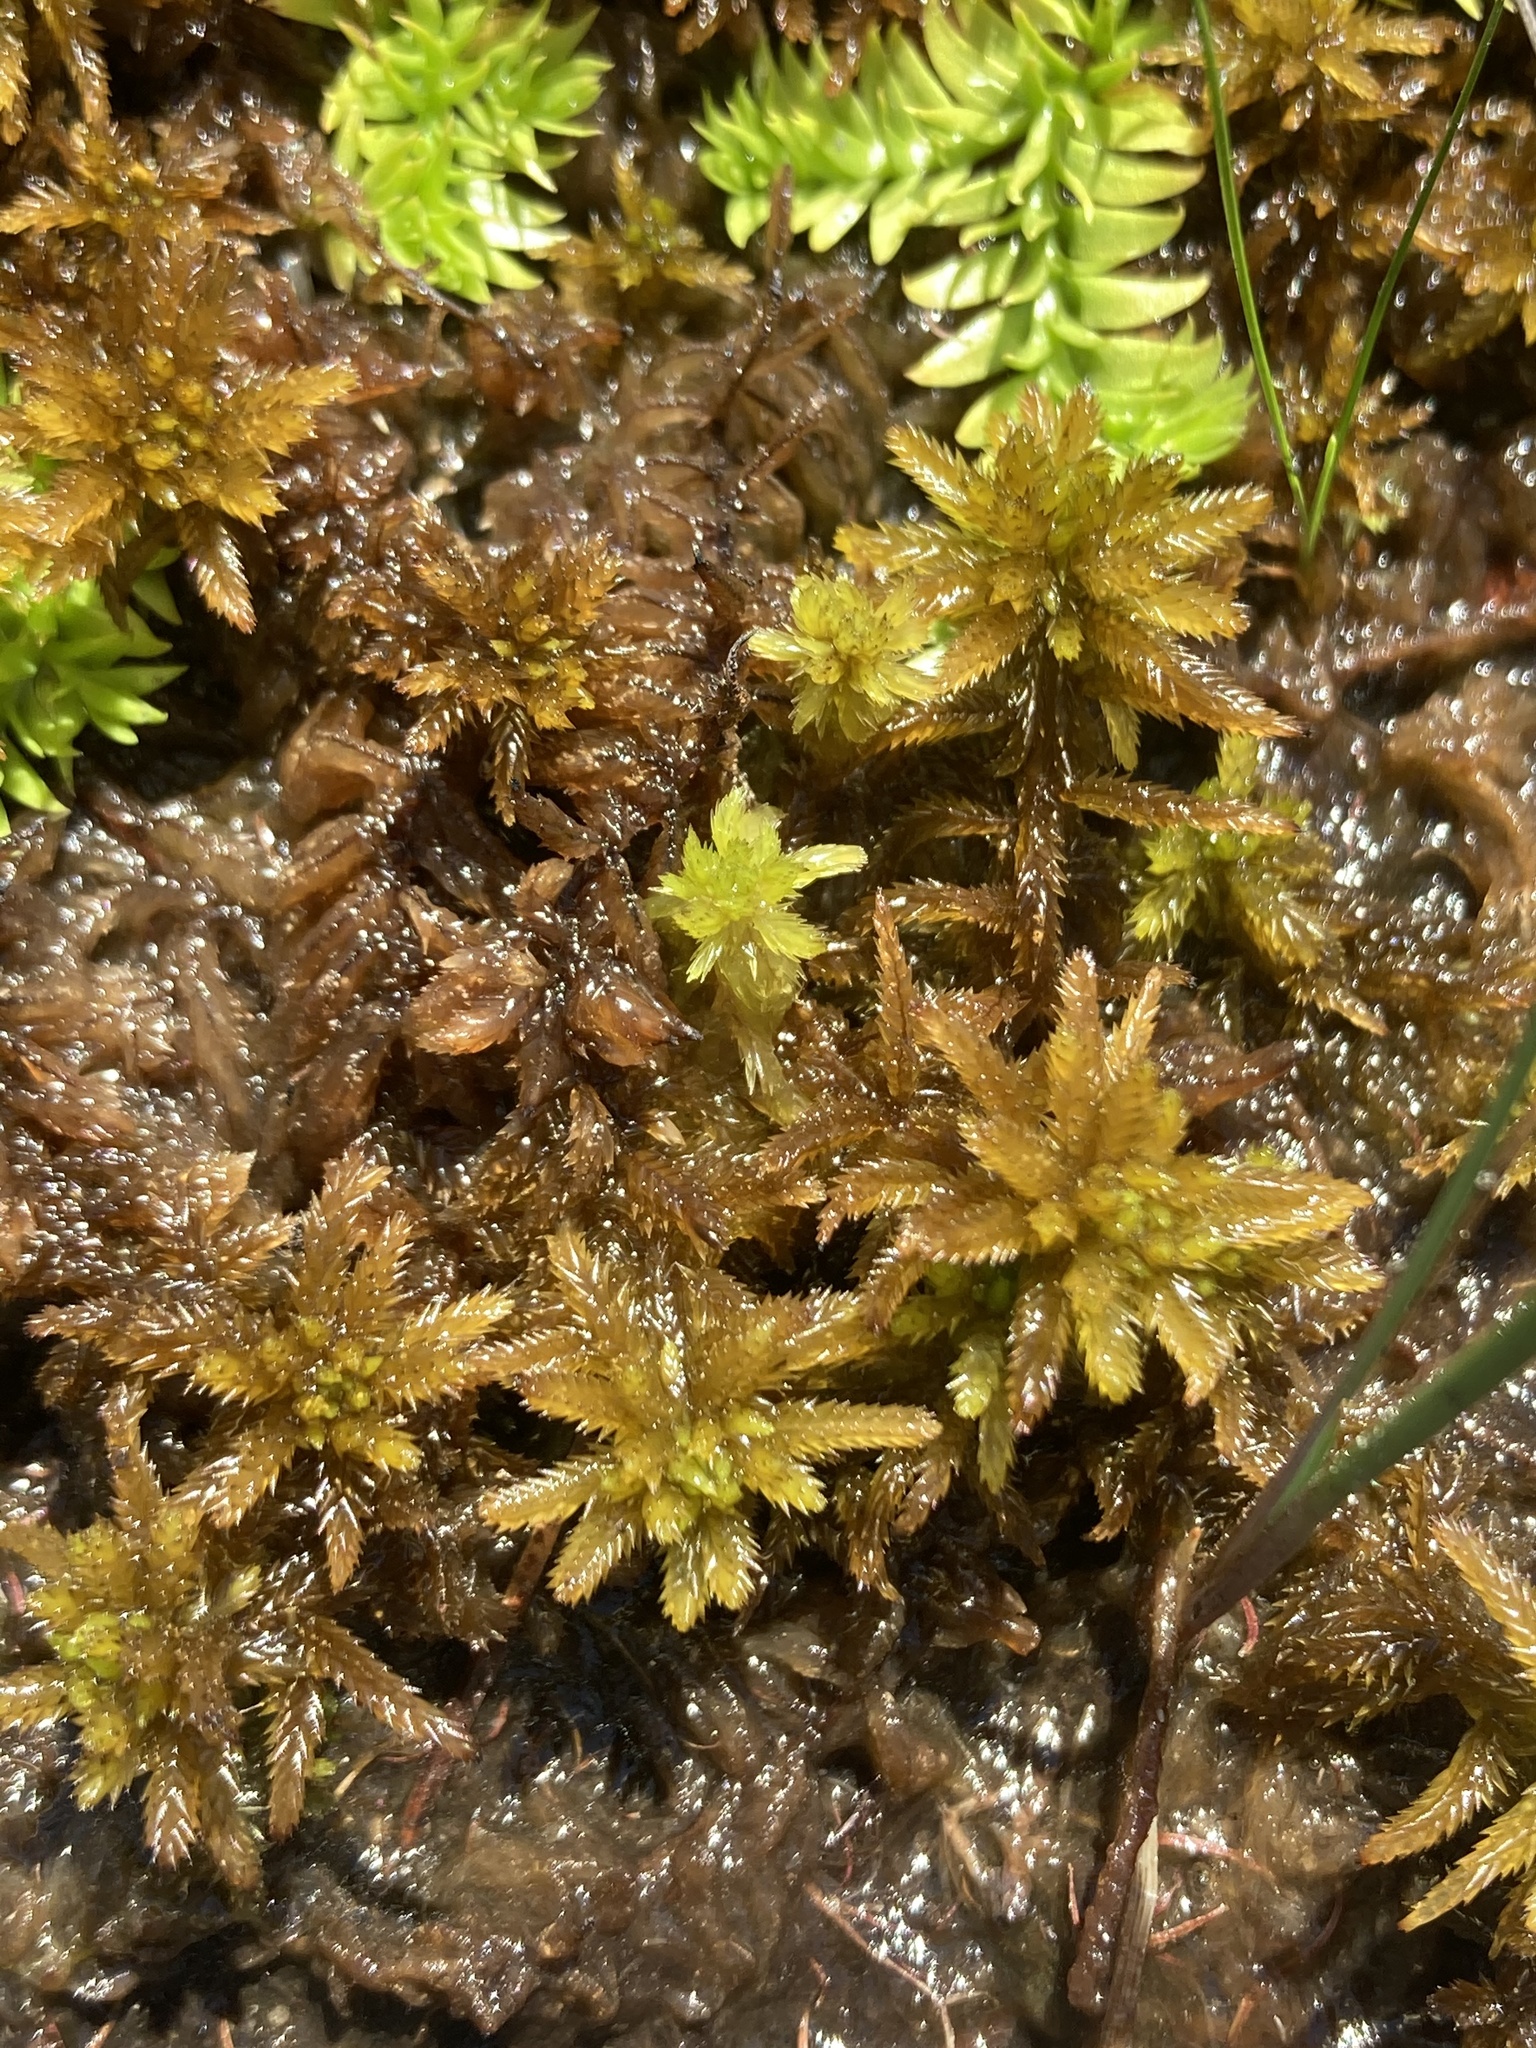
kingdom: Plantae
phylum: Bryophyta
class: Sphagnopsida
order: Sphagnales
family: Sphagnaceae
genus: Sphagnum
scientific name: Sphagnum pulchrum
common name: Beautiful peat moss
